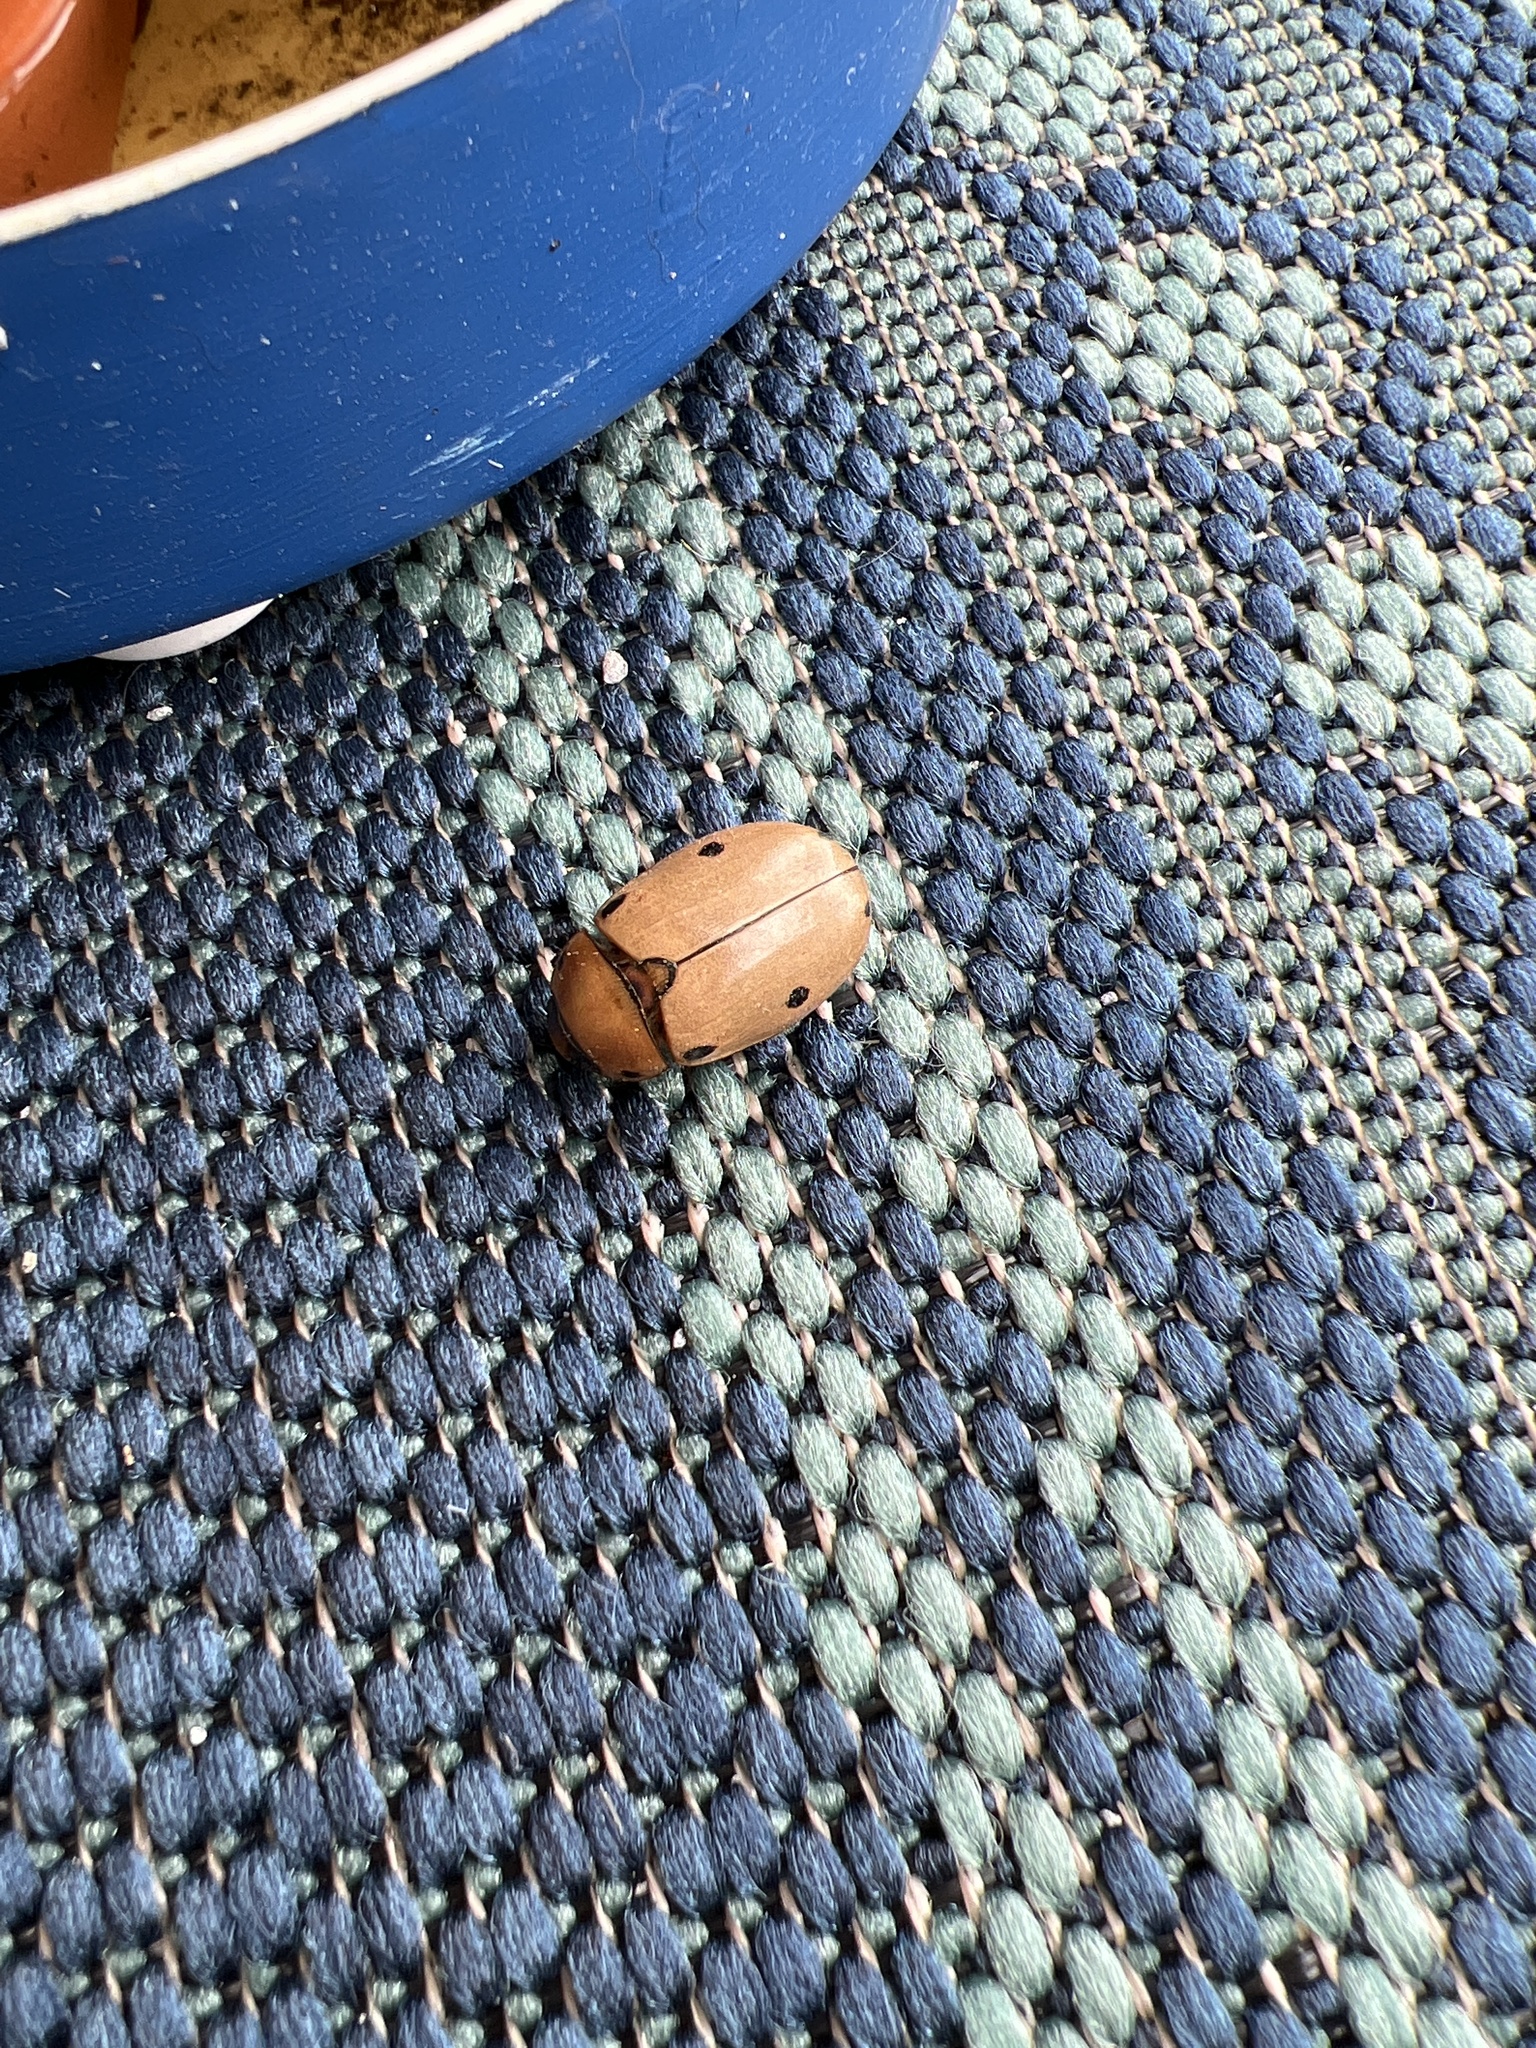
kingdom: Animalia
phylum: Arthropoda
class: Insecta
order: Coleoptera
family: Scarabaeidae
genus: Pelidnota
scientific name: Pelidnota punctata
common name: Grapevine beetle
